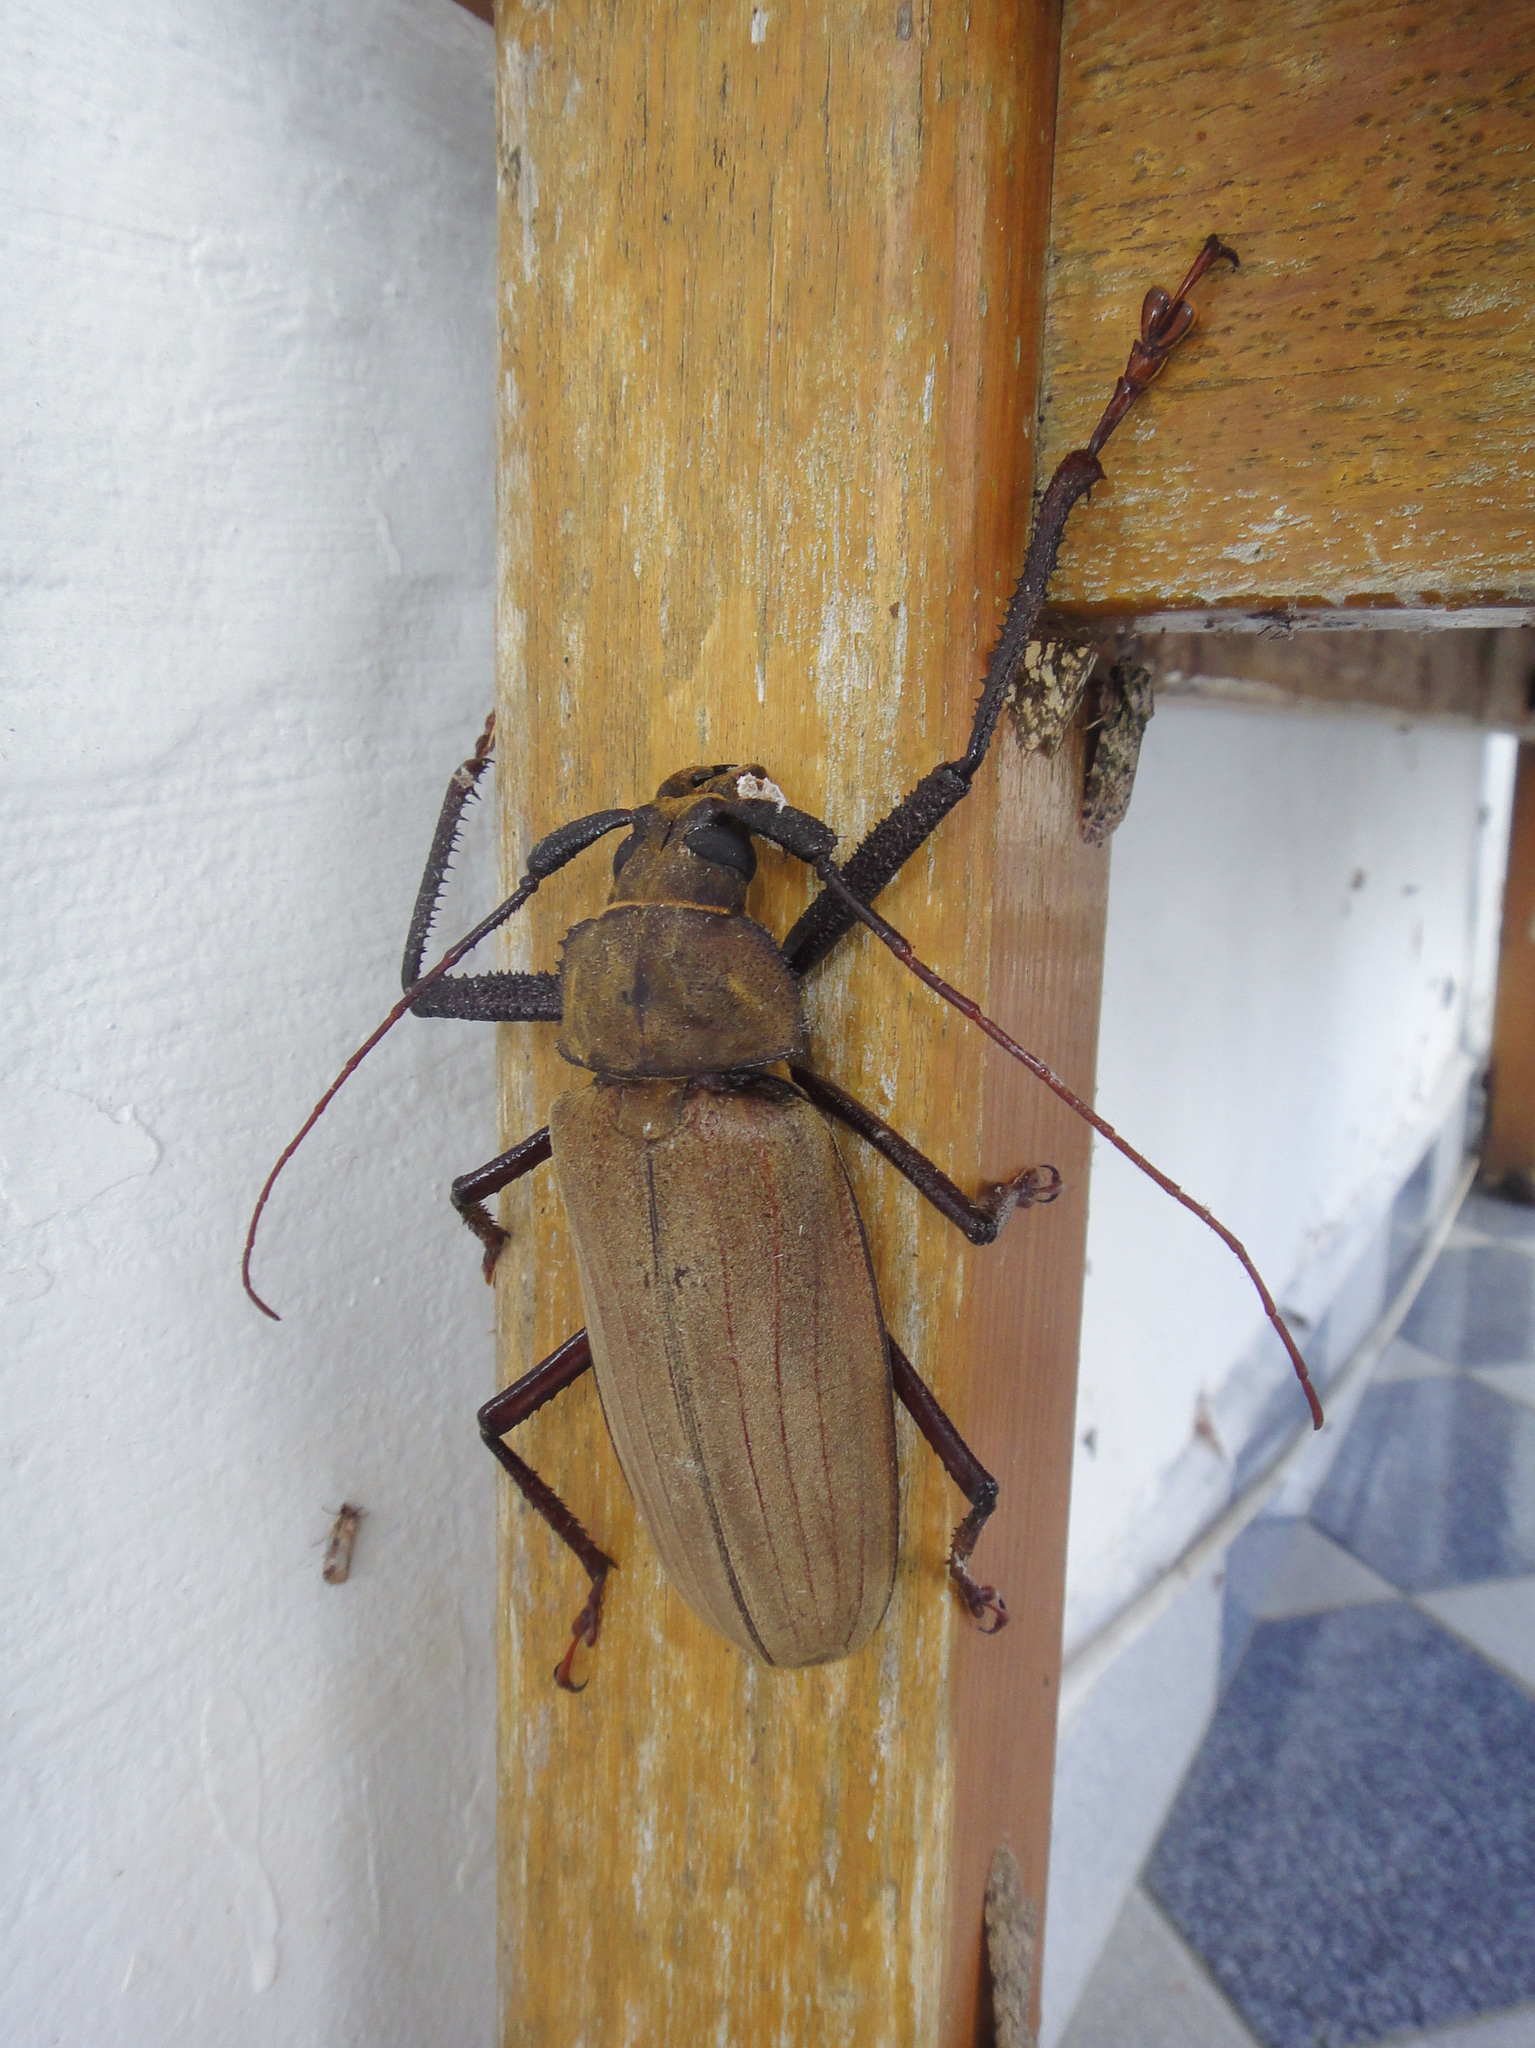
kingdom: Animalia
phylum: Arthropoda
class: Insecta
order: Coleoptera
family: Cerambycidae
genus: Xixuthrus
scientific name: Xixuthrus microcerus
